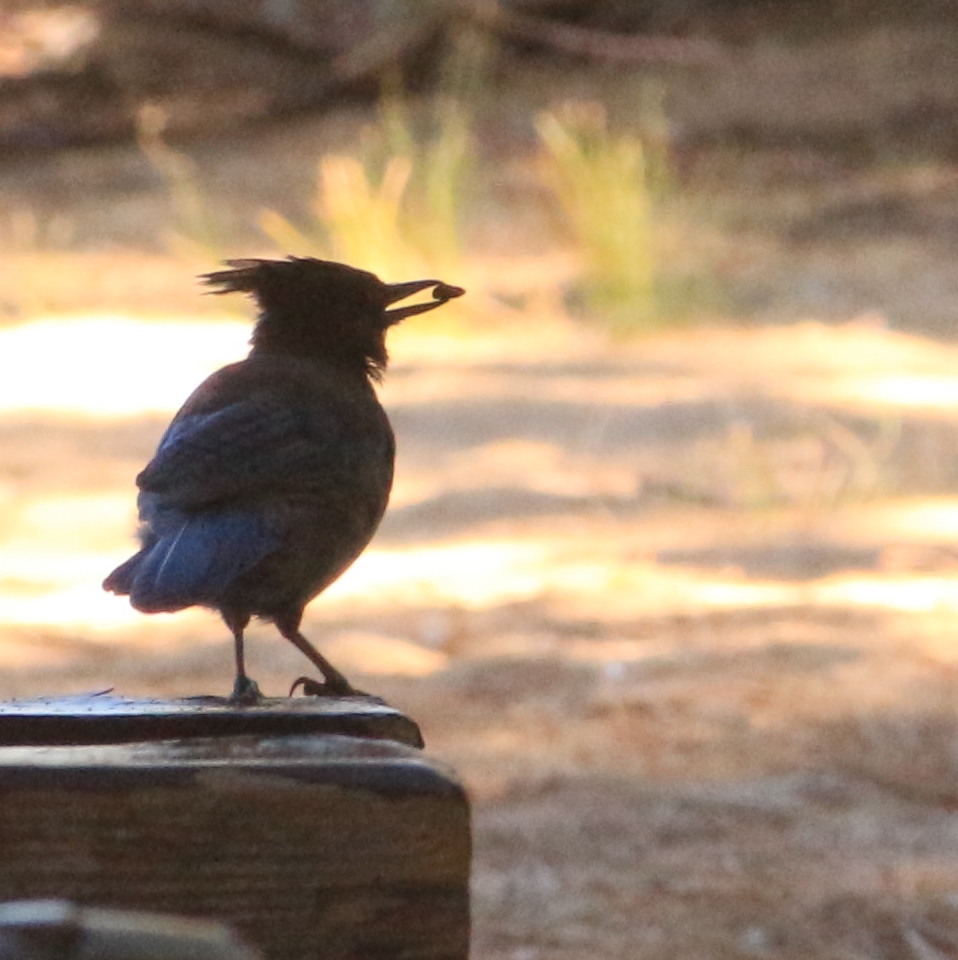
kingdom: Animalia
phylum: Chordata
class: Aves
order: Passeriformes
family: Corvidae
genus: Cyanocitta
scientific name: Cyanocitta stelleri
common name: Steller's jay
